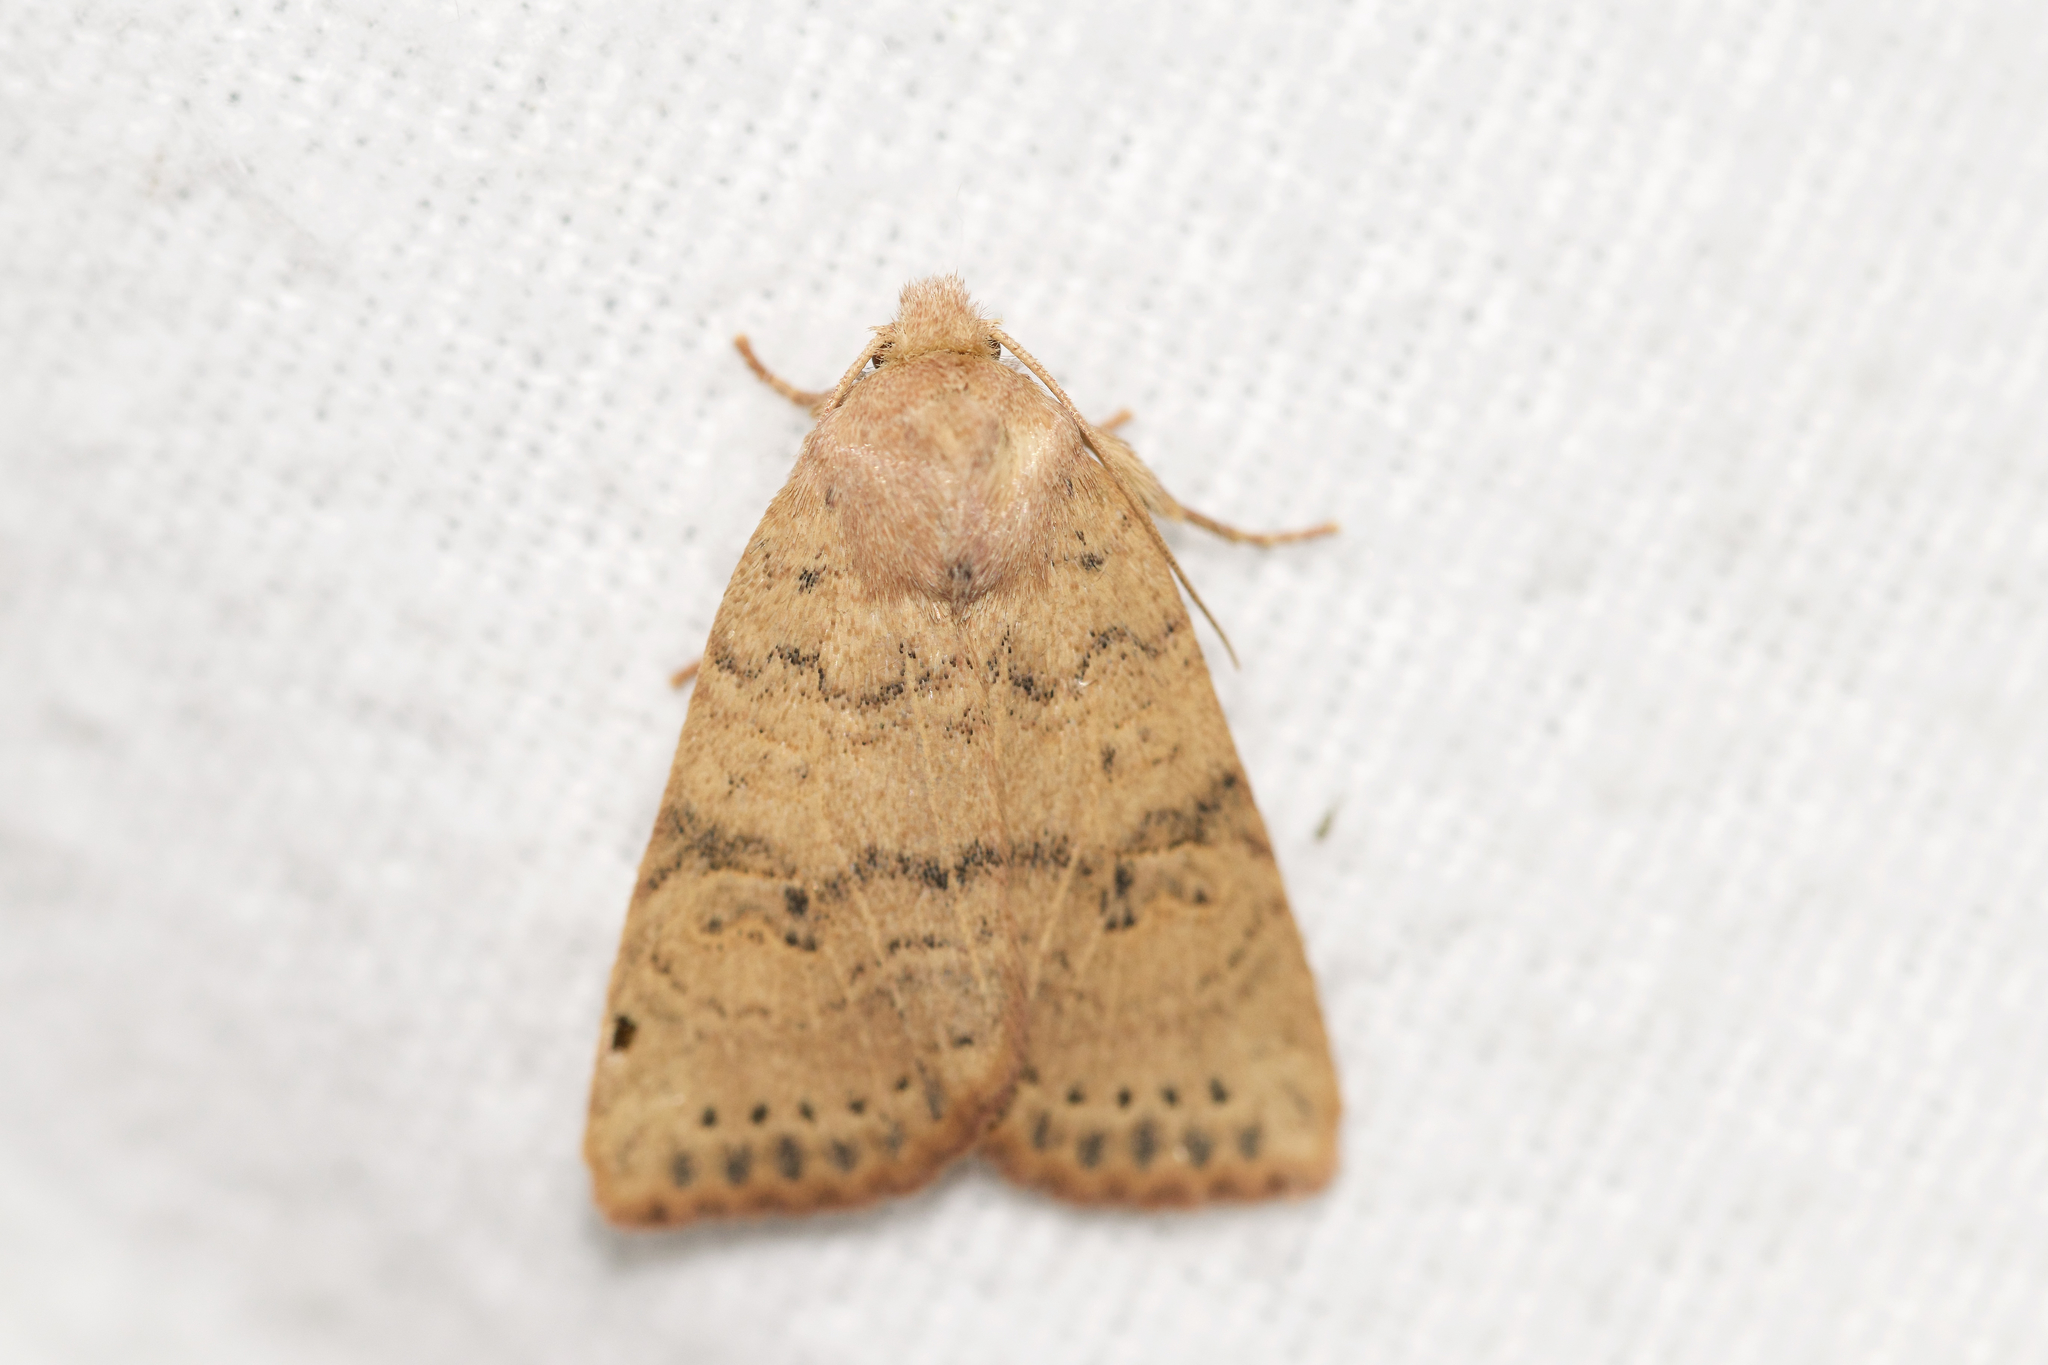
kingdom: Animalia
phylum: Arthropoda
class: Insecta
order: Lepidoptera
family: Noctuidae
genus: Anathix
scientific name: Anathix ralla
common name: Dotted sallow
